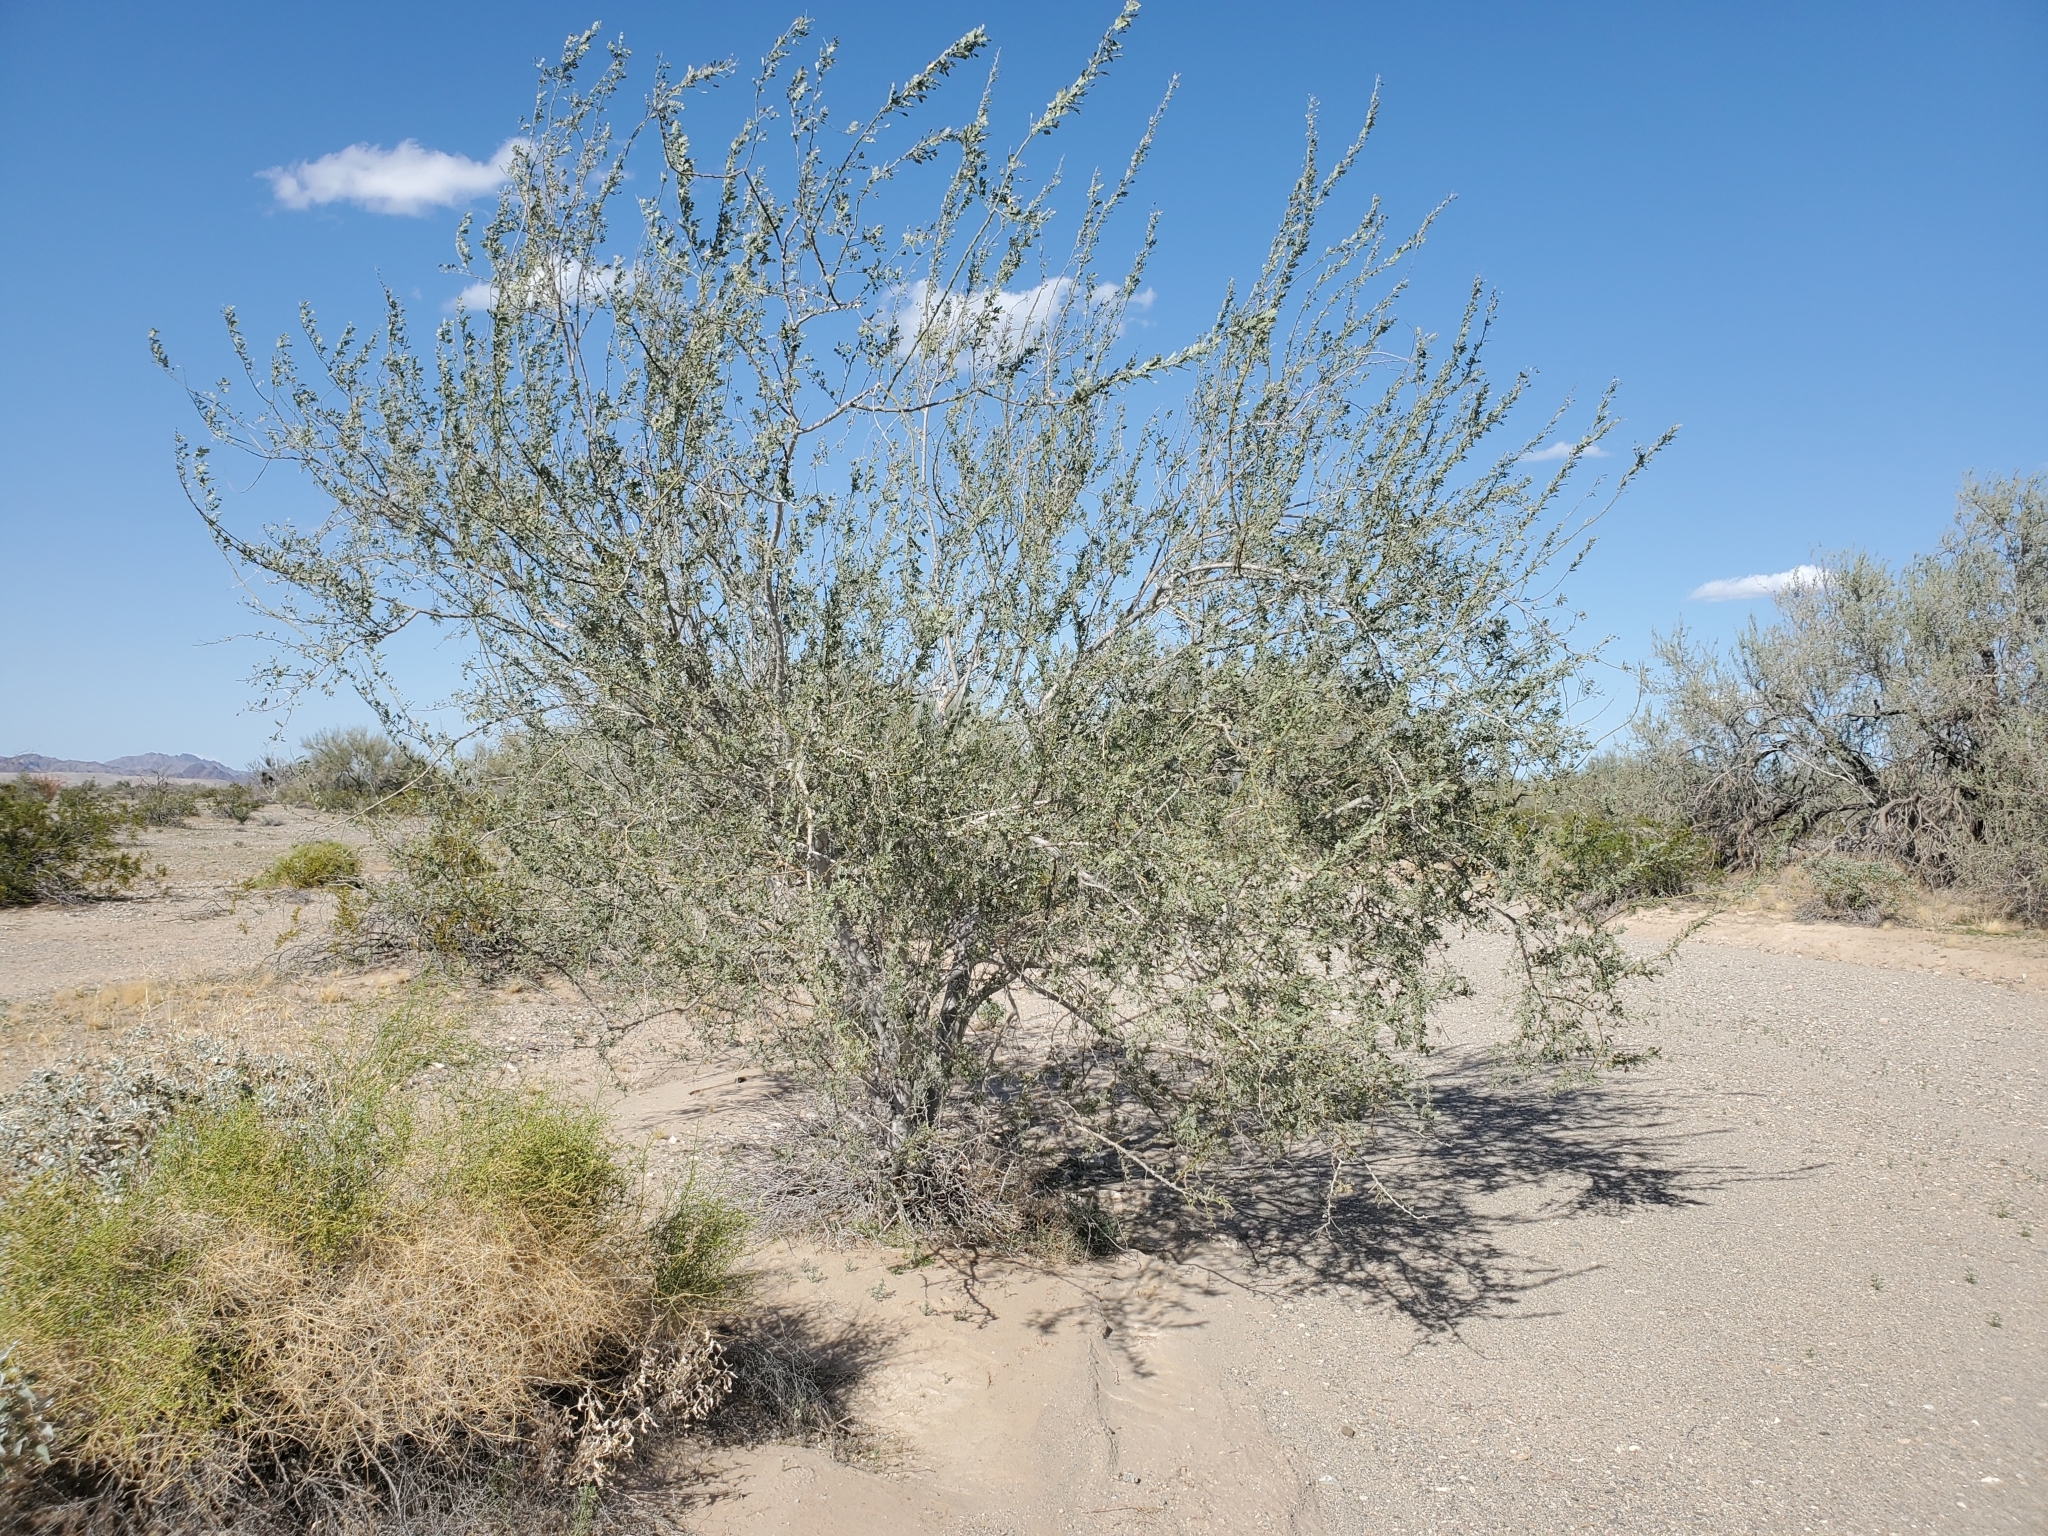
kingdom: Plantae
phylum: Tracheophyta
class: Magnoliopsida
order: Fabales
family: Fabaceae
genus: Olneya
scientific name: Olneya tesota
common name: Desert ironwood
